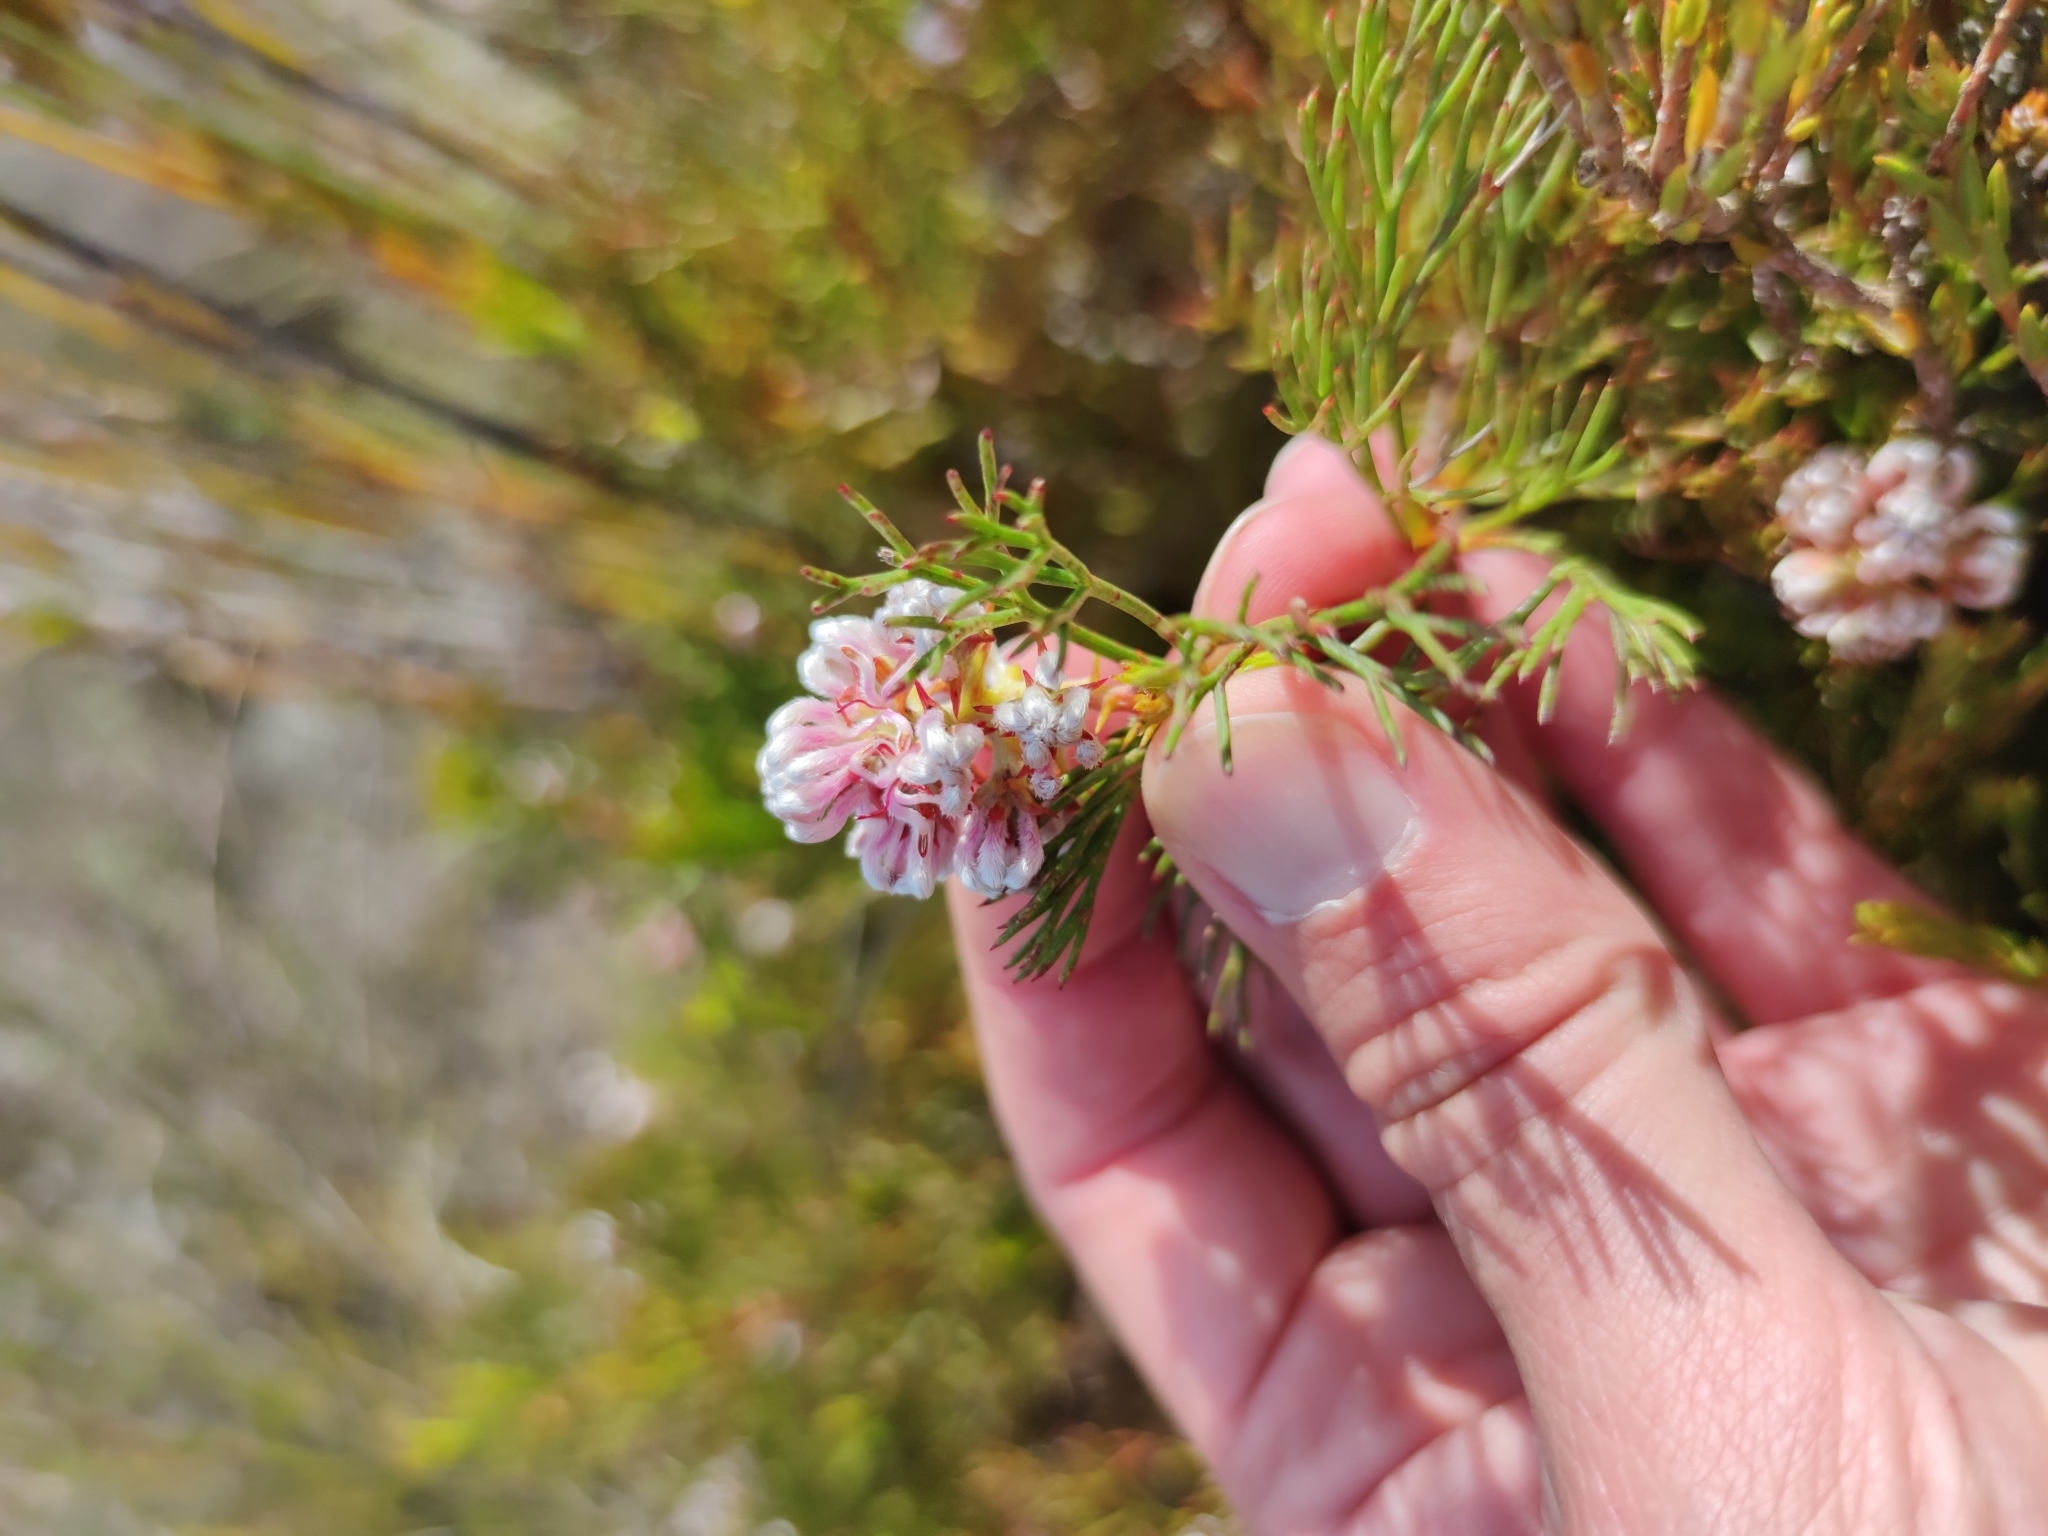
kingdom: Plantae
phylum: Tracheophyta
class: Magnoliopsida
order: Proteales
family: Proteaceae
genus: Serruria
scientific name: Serruria rubricaulis
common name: Red-stem spiderhead
